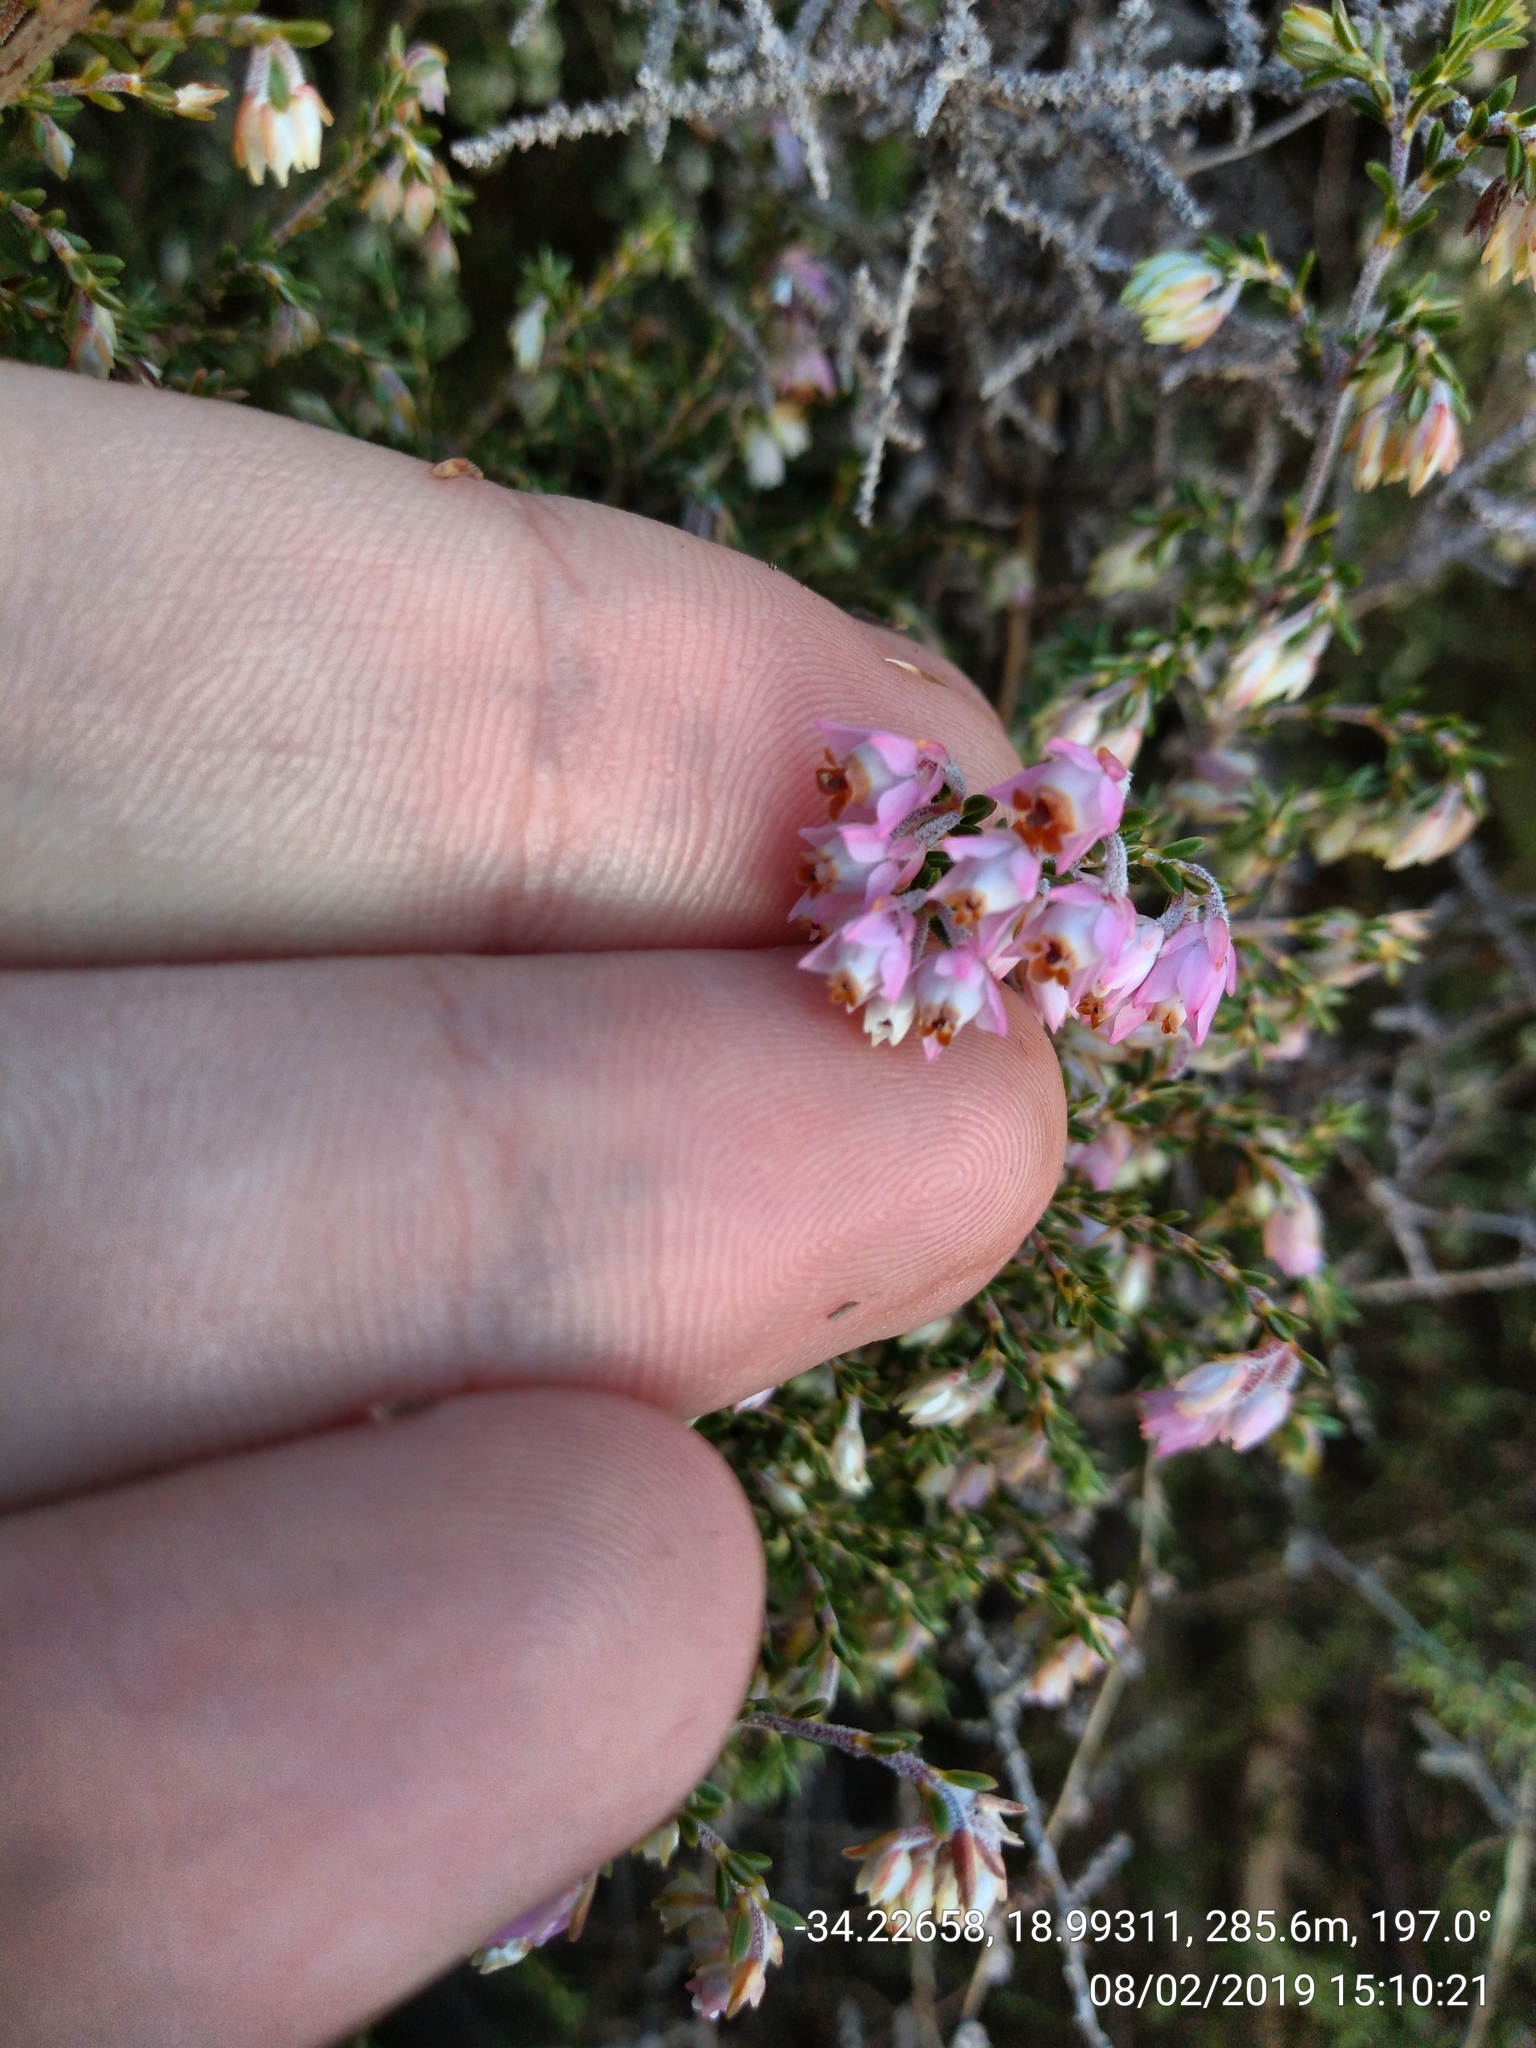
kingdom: Plantae
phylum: Tracheophyta
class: Magnoliopsida
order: Ericales
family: Ericaceae
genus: Erica
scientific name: Erica plumigera
